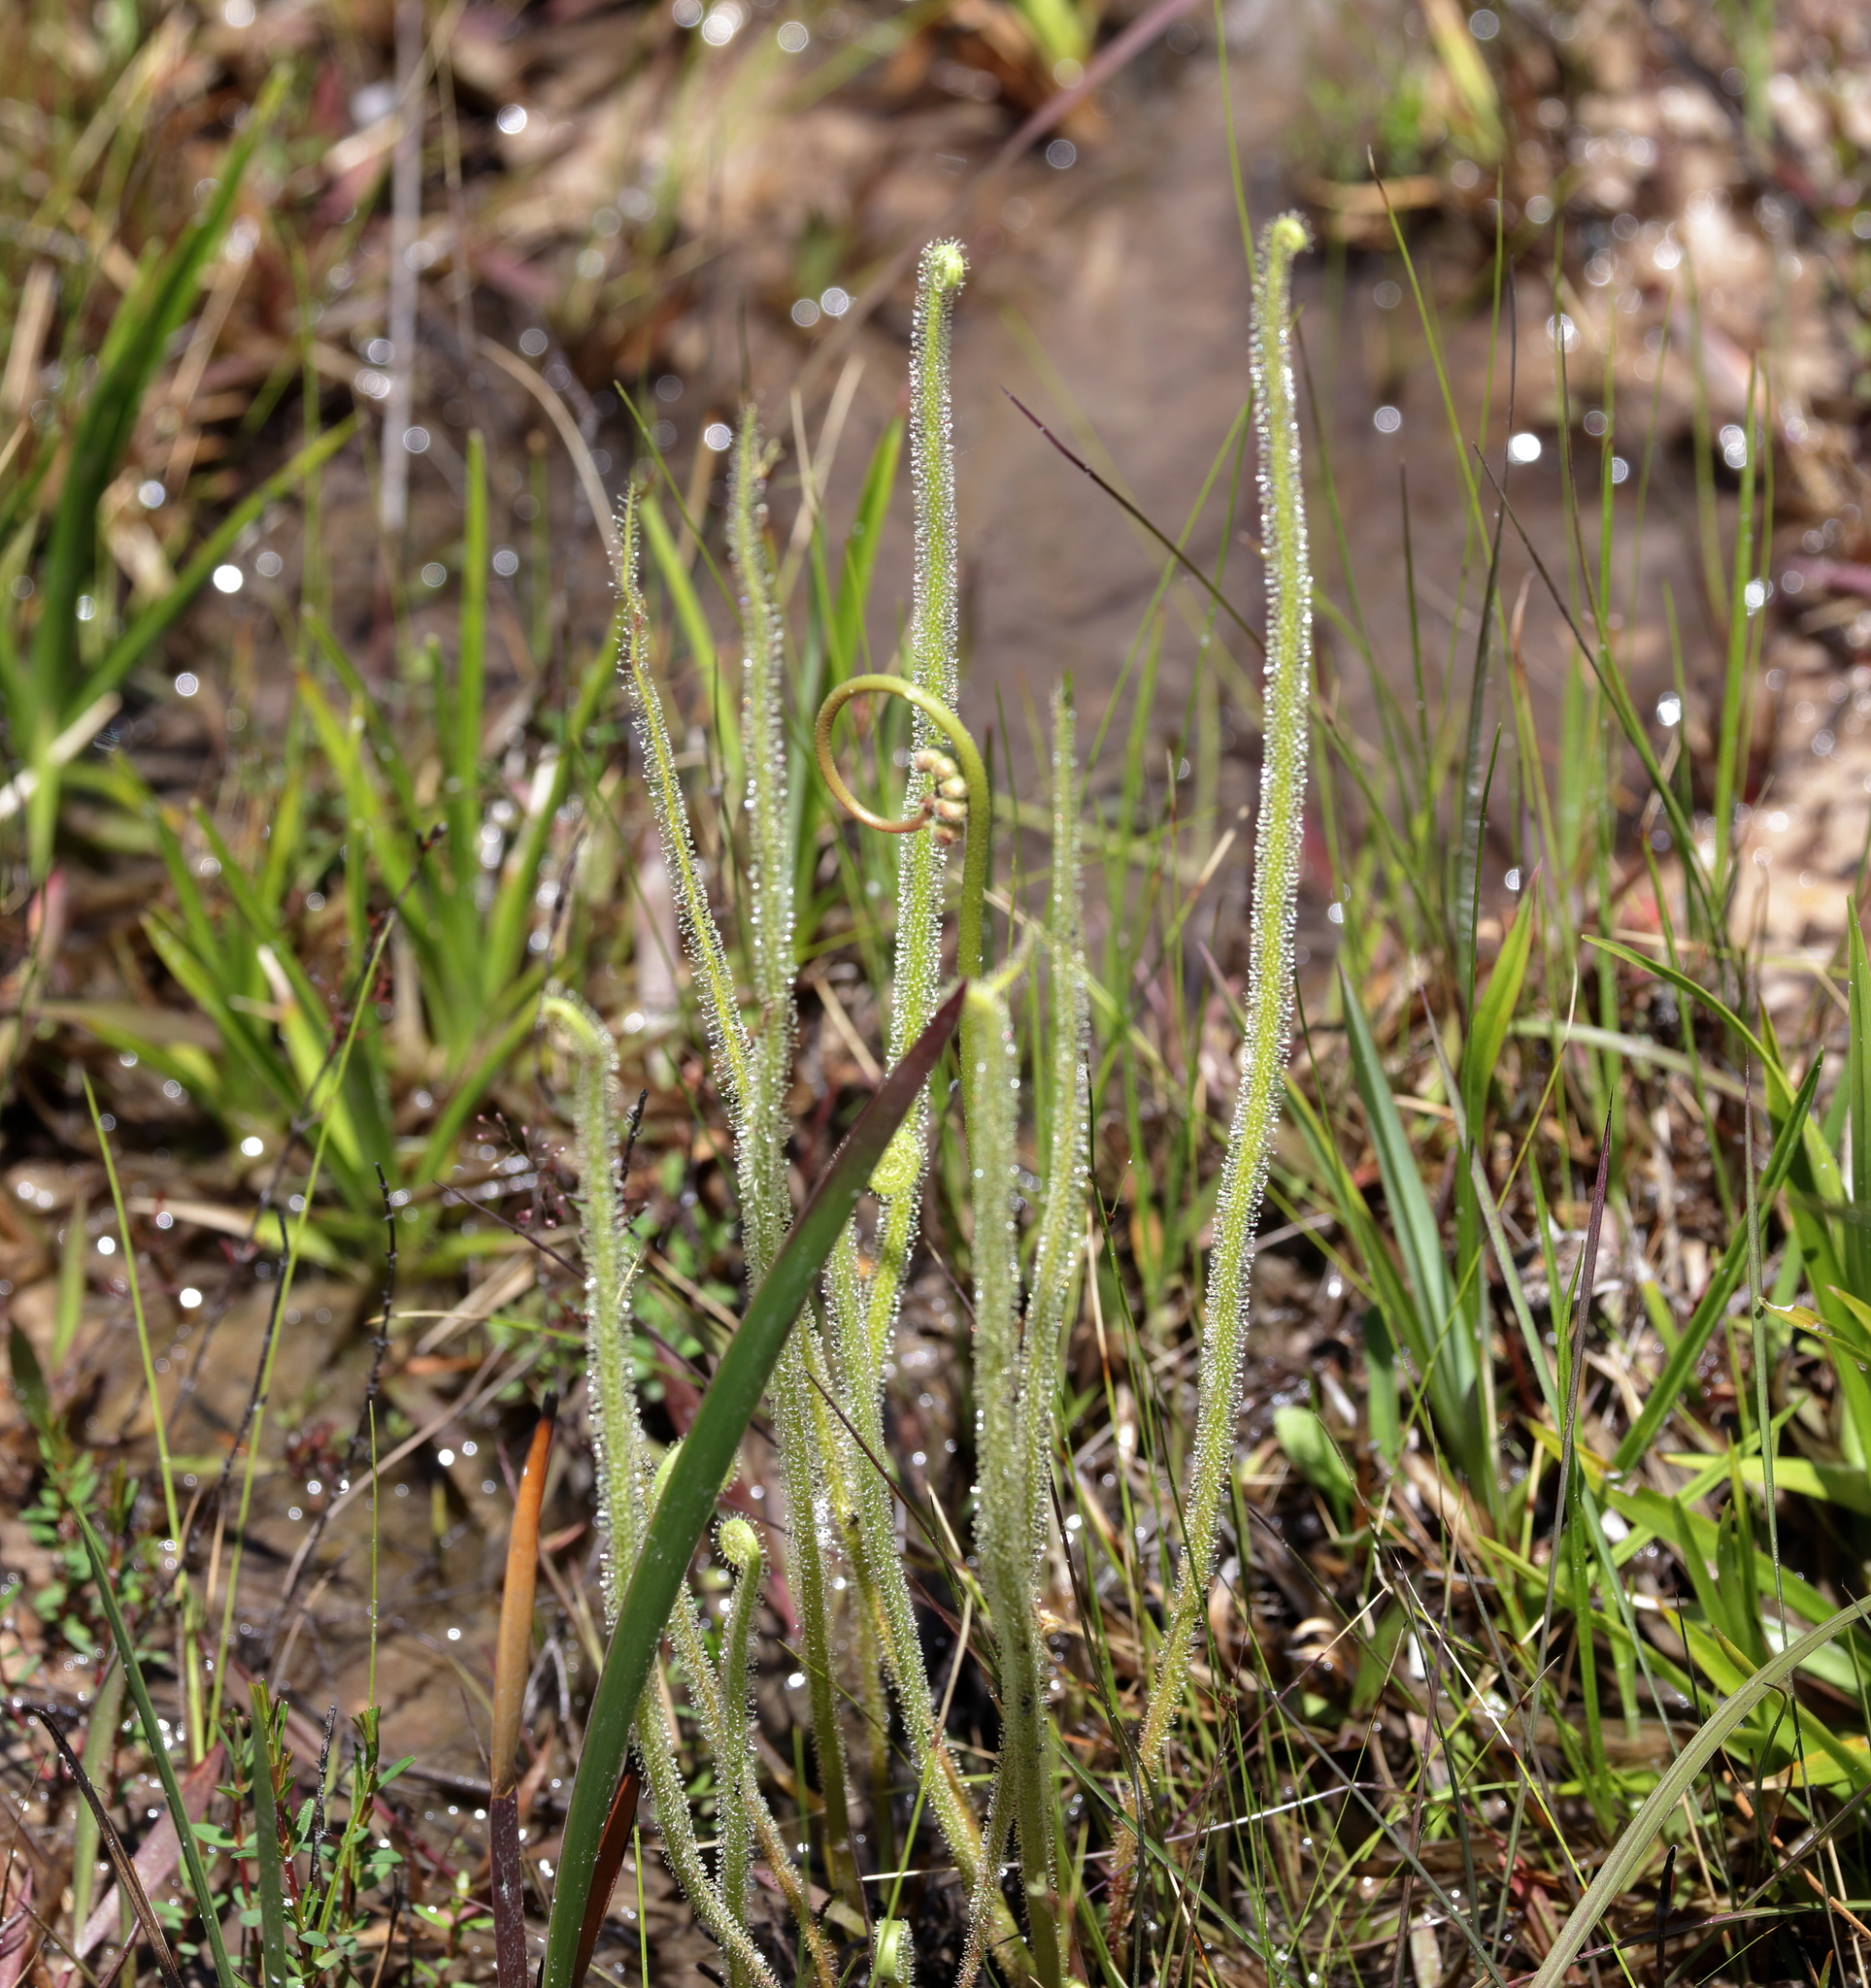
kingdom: Plantae
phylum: Tracheophyta
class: Magnoliopsida
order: Caryophyllales
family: Droseraceae
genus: Drosera
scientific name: Drosera filiformis
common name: Dew-thread
